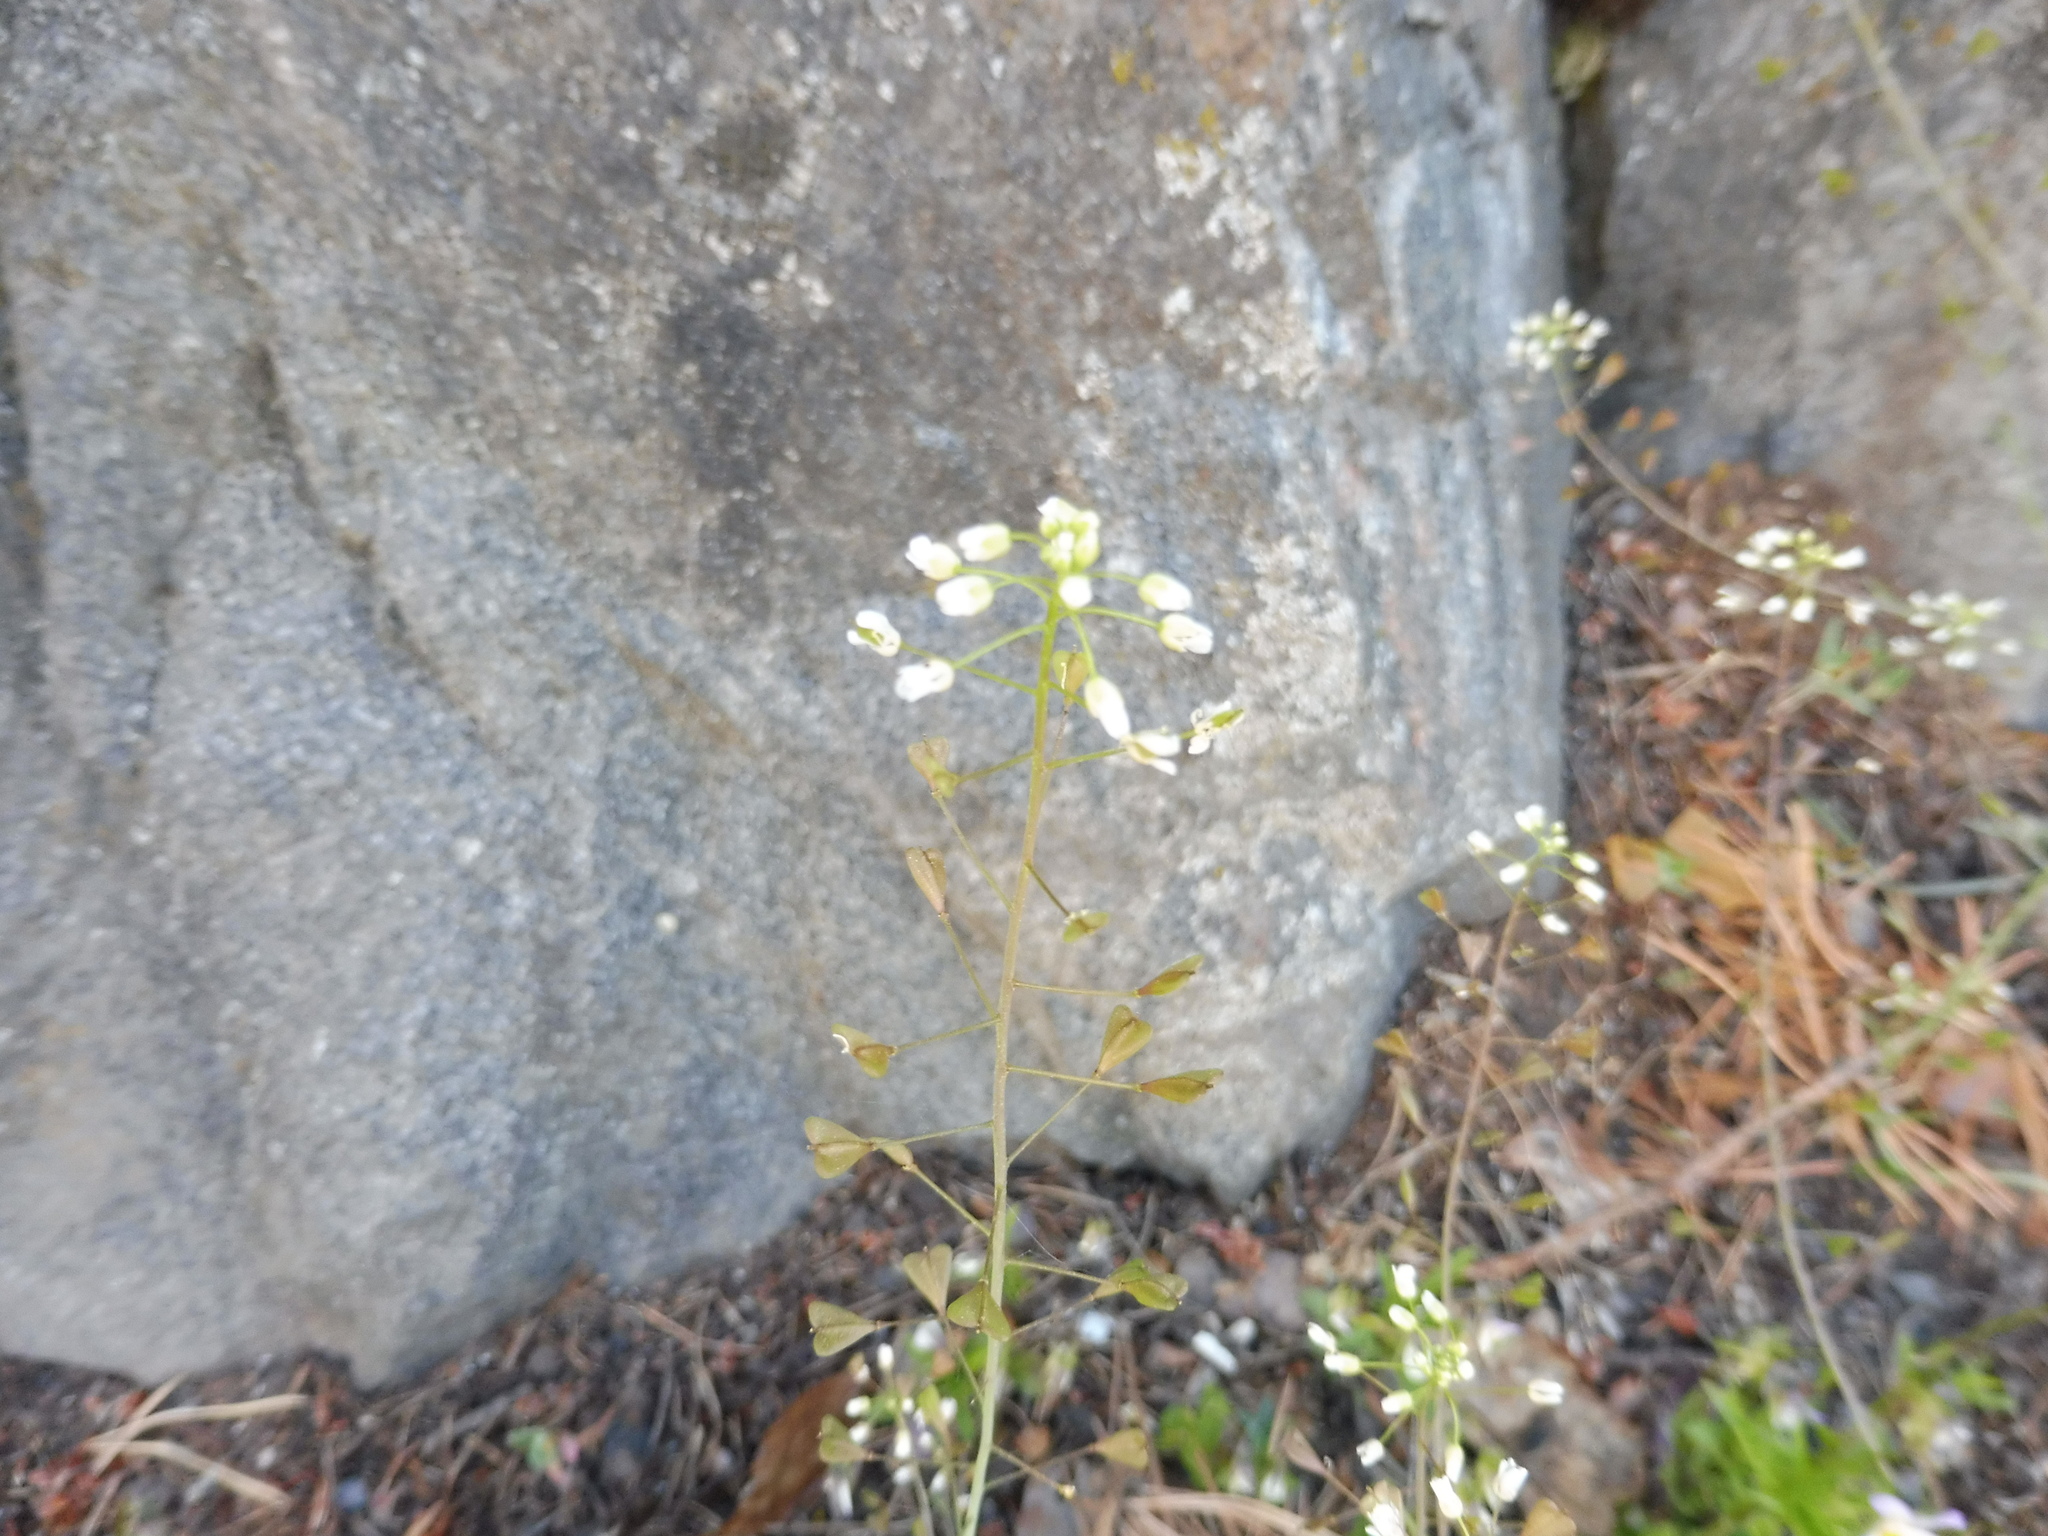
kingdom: Plantae
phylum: Tracheophyta
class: Magnoliopsida
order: Brassicales
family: Brassicaceae
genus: Capsella
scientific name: Capsella bursa-pastoris
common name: Shepherd's purse
